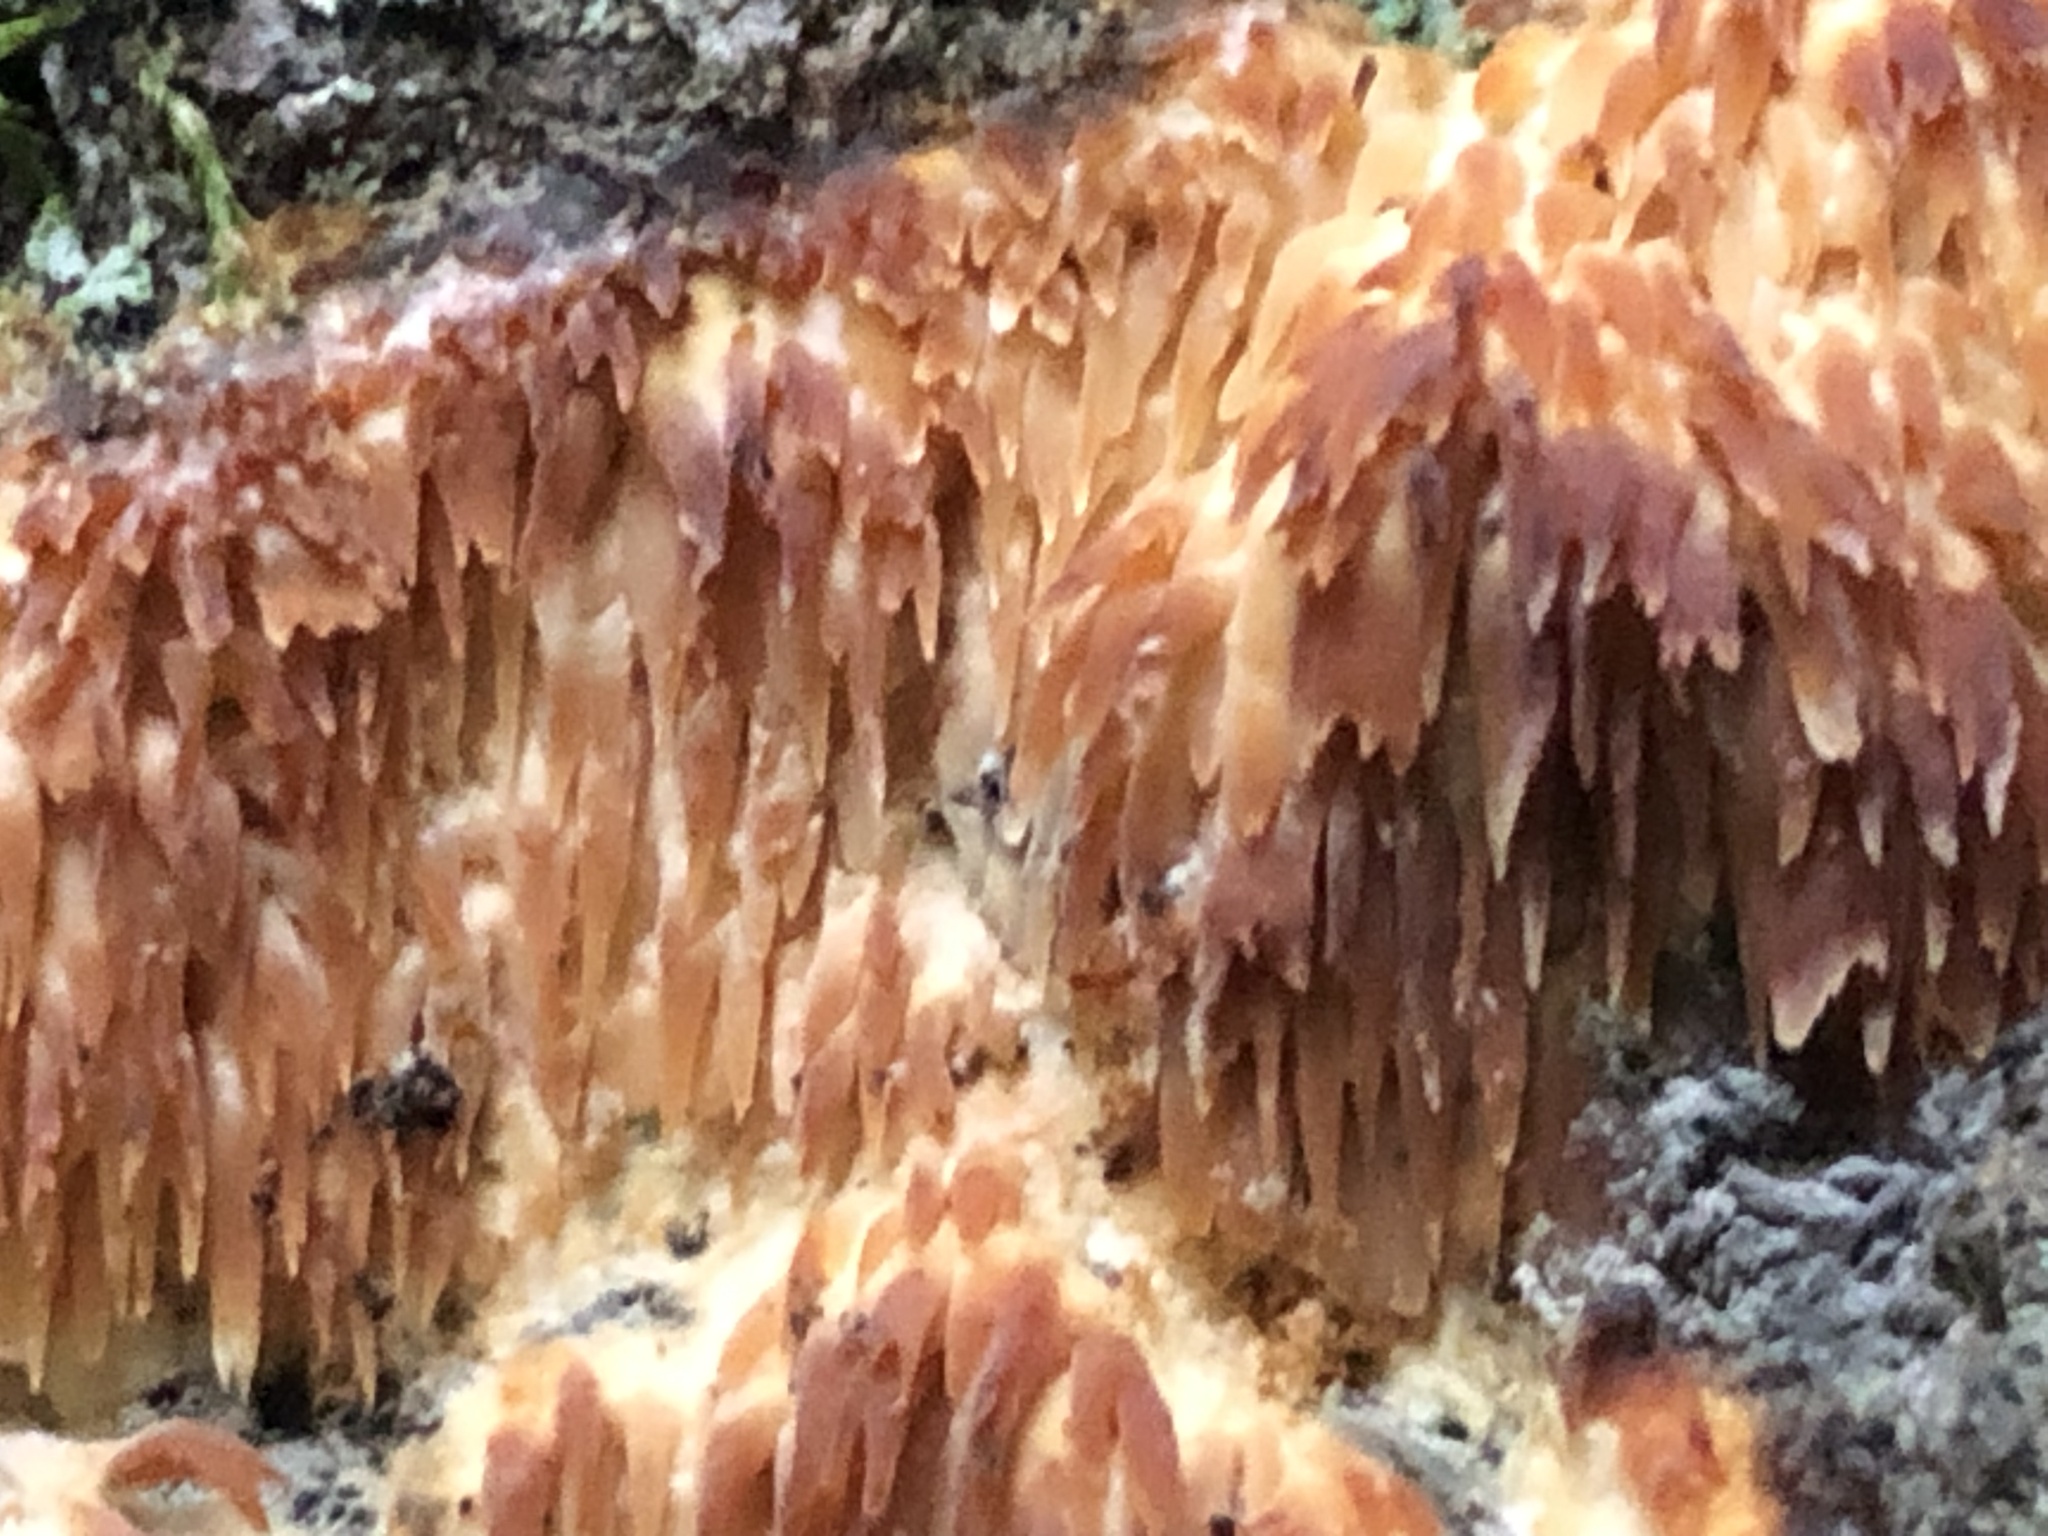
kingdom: Fungi
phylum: Basidiomycota
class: Agaricomycetes
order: Agaricales
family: Radulomycetaceae
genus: Radulomyces
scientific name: Radulomyces copelandii
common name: Asian beauty
